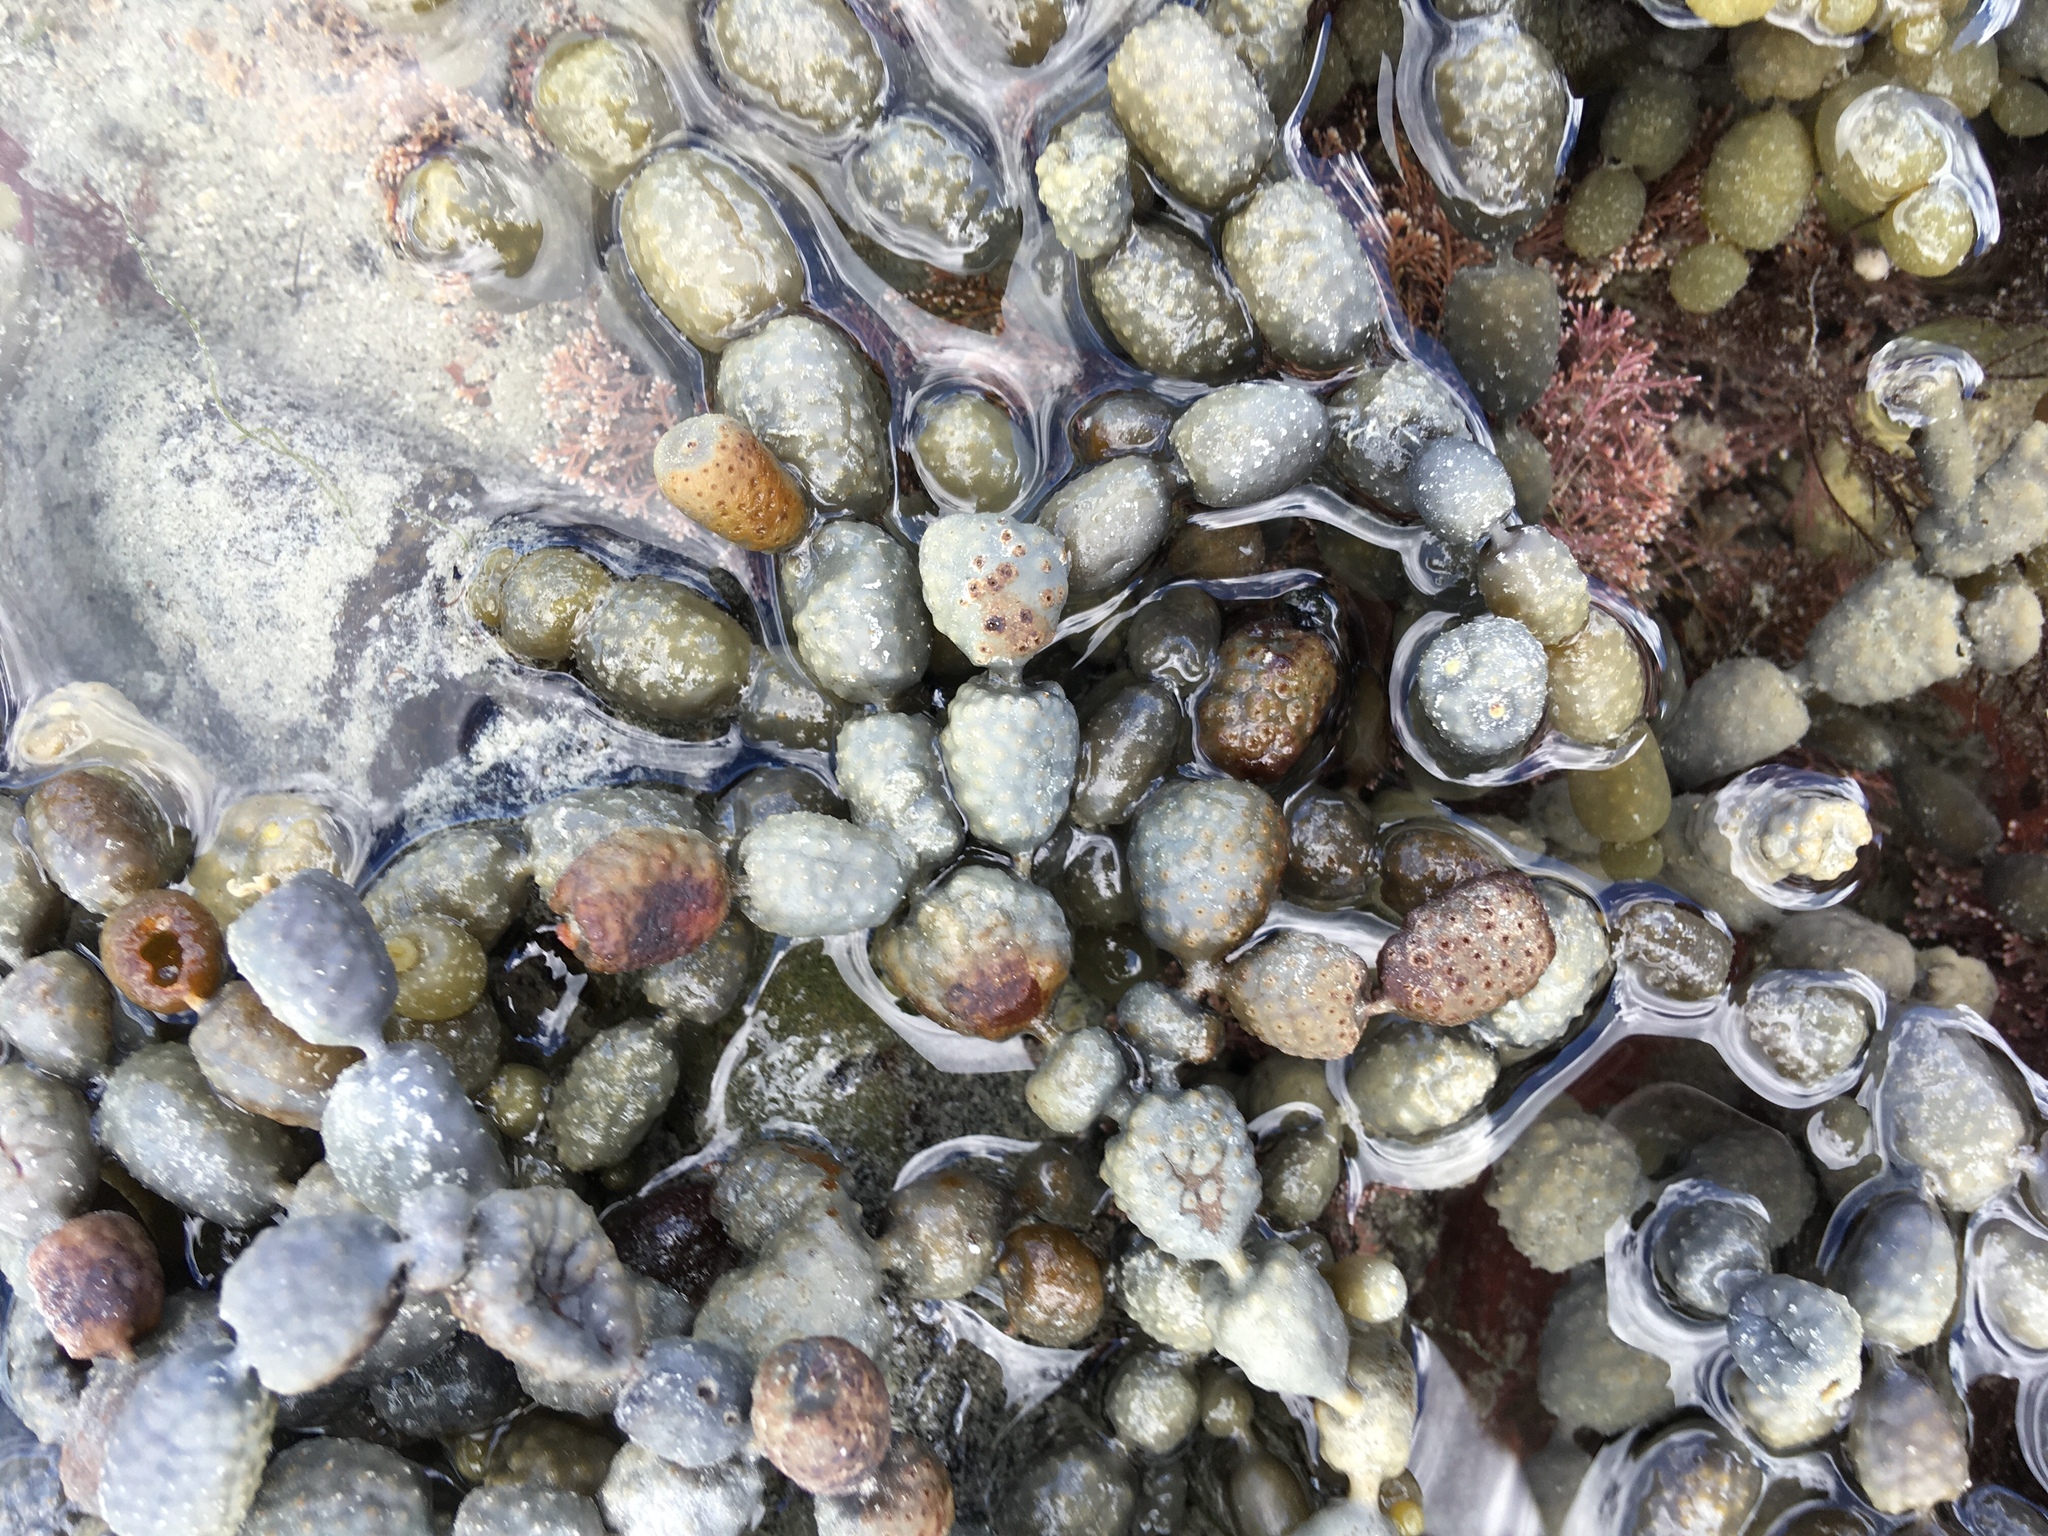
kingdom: Chromista
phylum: Ochrophyta
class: Phaeophyceae
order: Fucales
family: Hormosiraceae
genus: Hormosira
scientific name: Hormosira banksii
